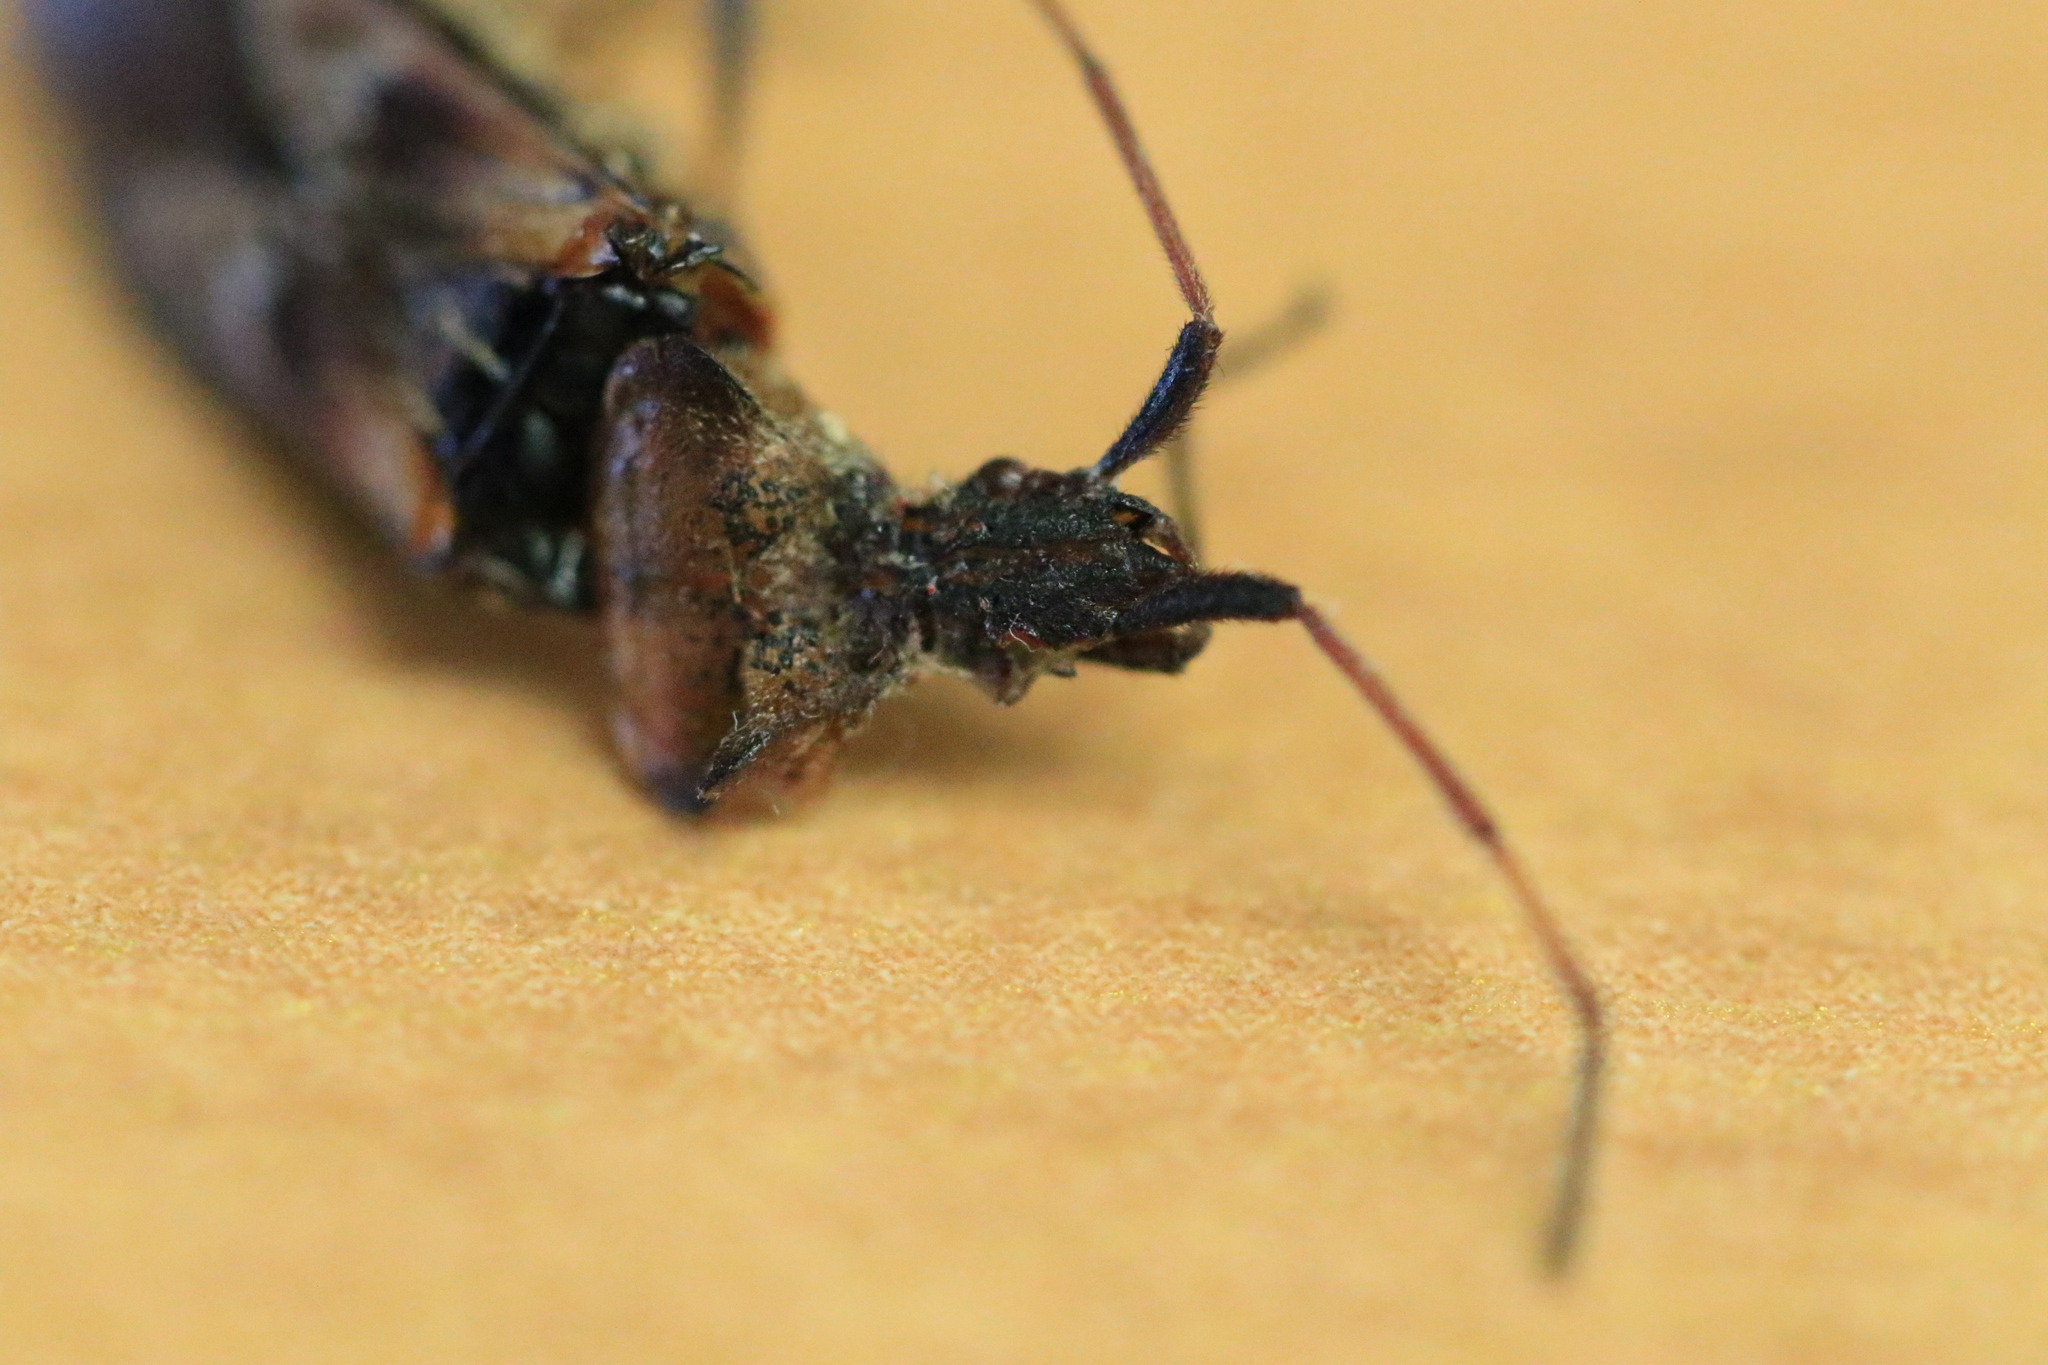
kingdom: Animalia
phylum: Arthropoda
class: Insecta
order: Hemiptera
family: Coreidae
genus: Leptoglossus
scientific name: Leptoglossus occidentalis
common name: Western conifer-seed bug
